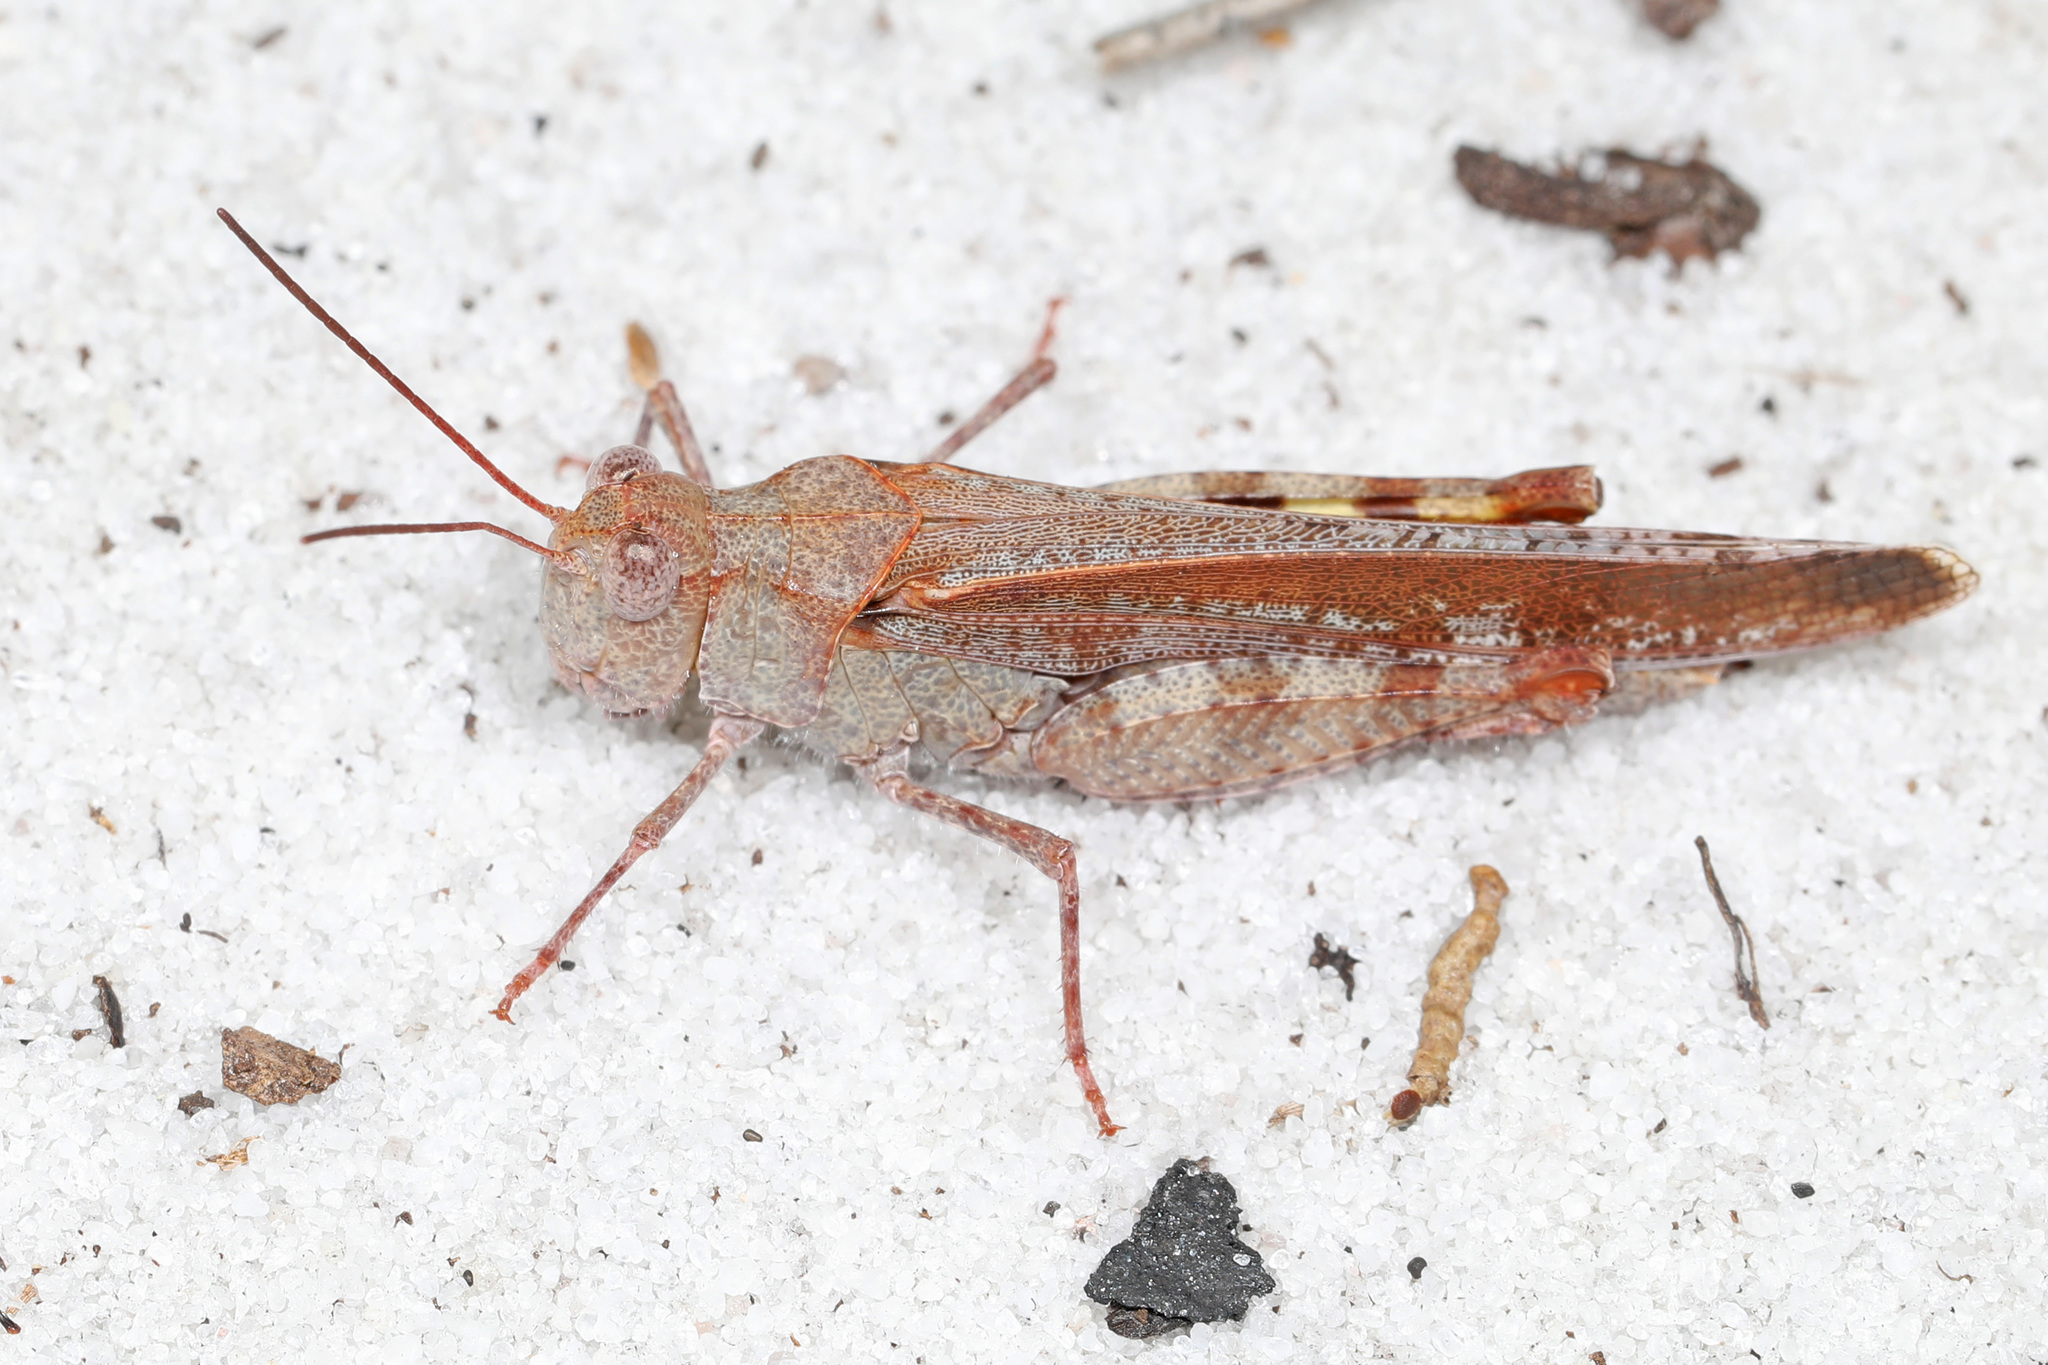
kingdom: Animalia
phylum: Arthropoda
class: Insecta
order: Orthoptera
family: Acrididae
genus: Spharagemon
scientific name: Spharagemon marmoratum
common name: Marbled grasshopper
